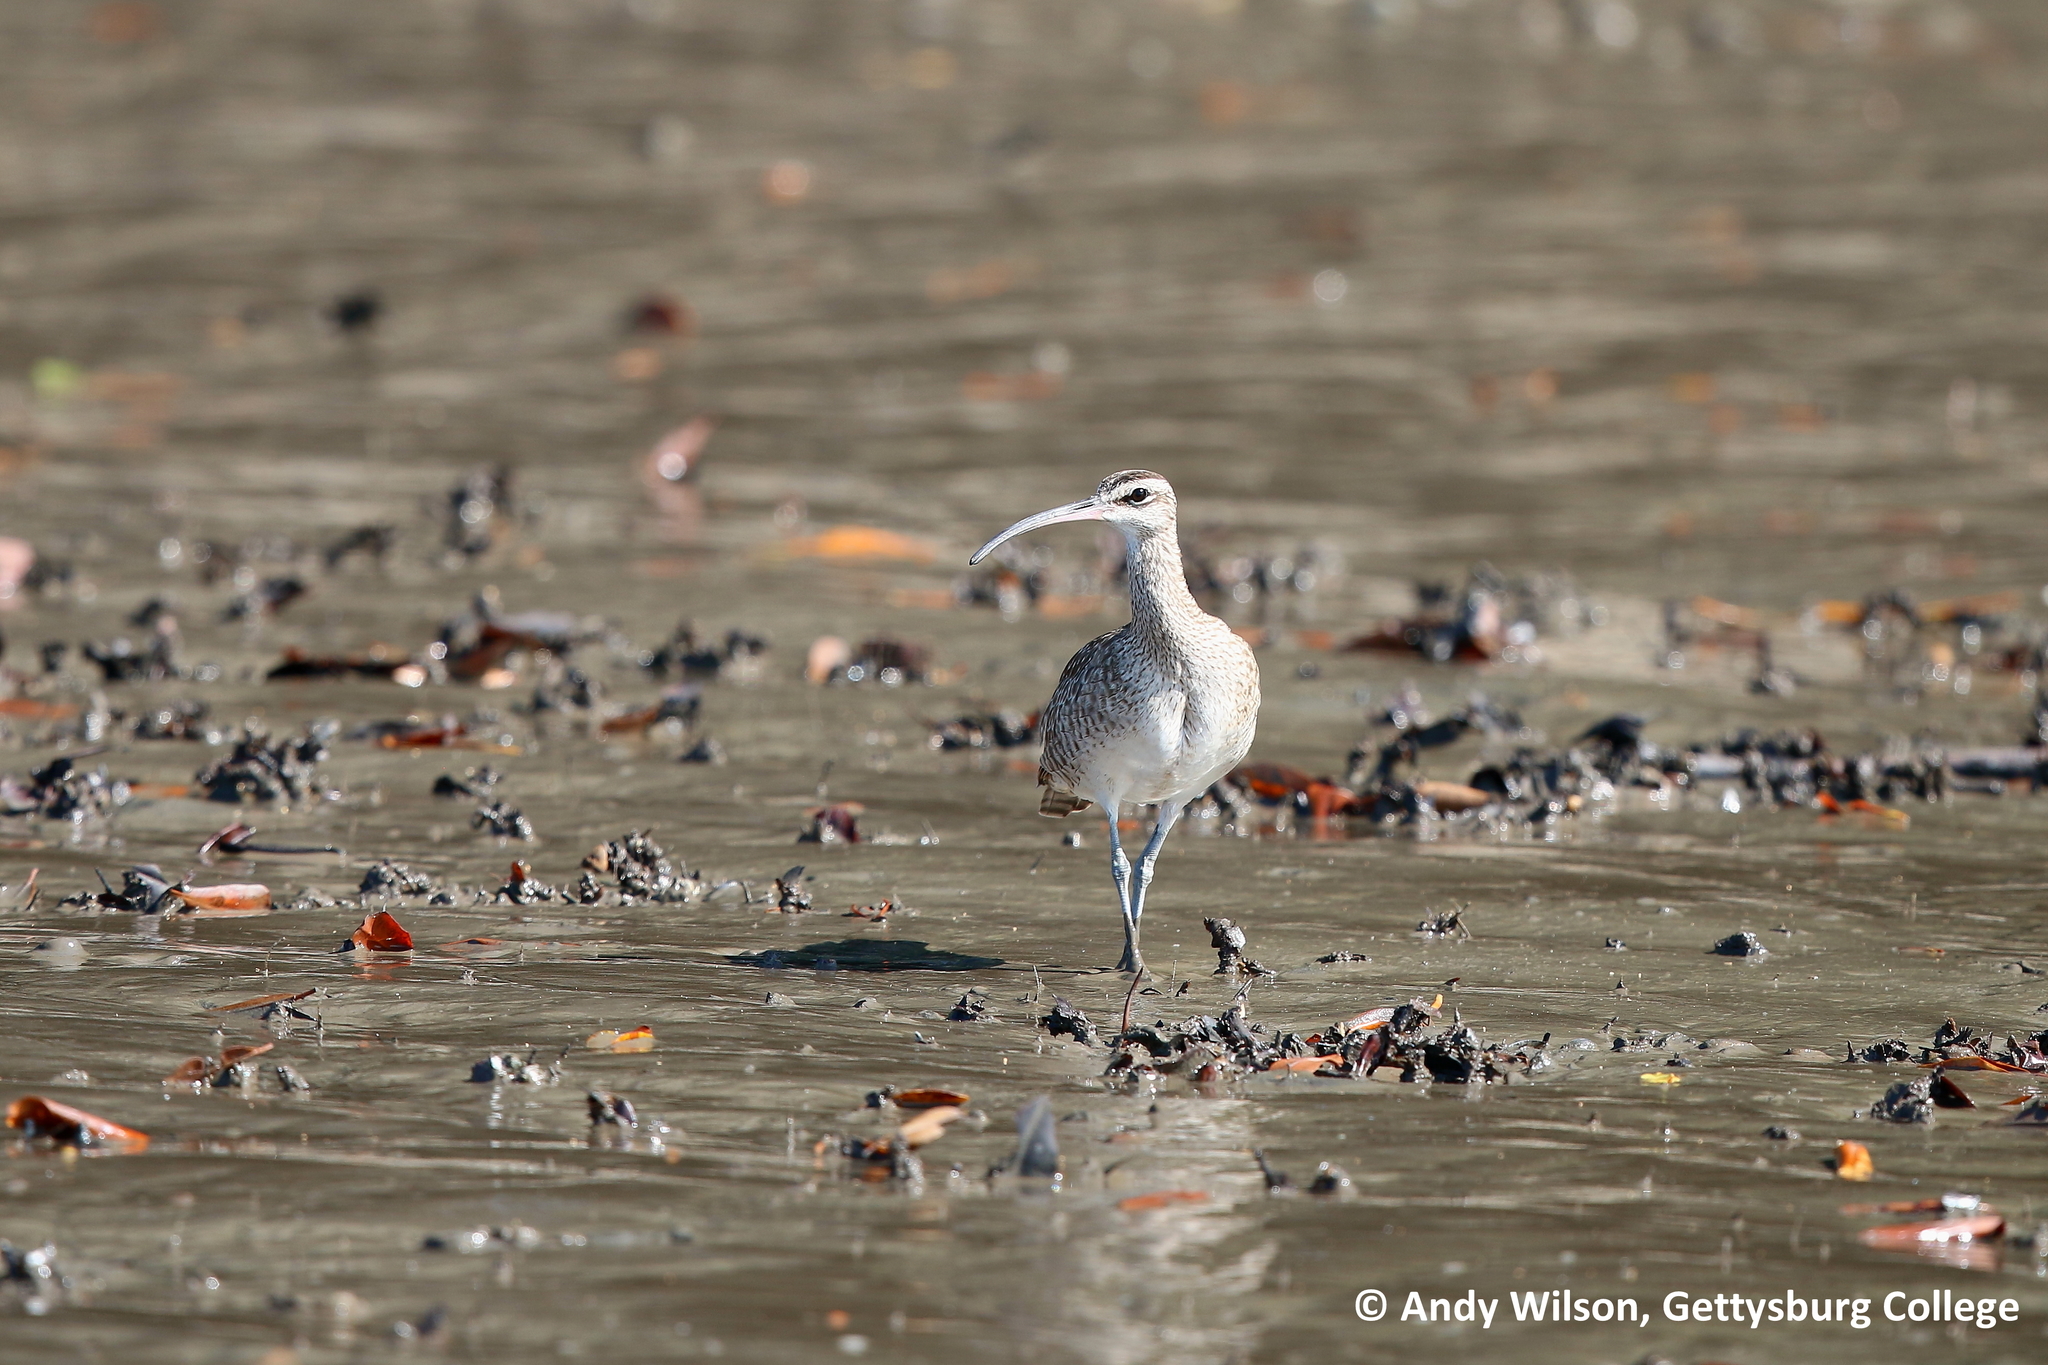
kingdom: Animalia
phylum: Chordata
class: Aves
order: Charadriiformes
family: Scolopacidae
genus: Numenius
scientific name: Numenius phaeopus
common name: Whimbrel
